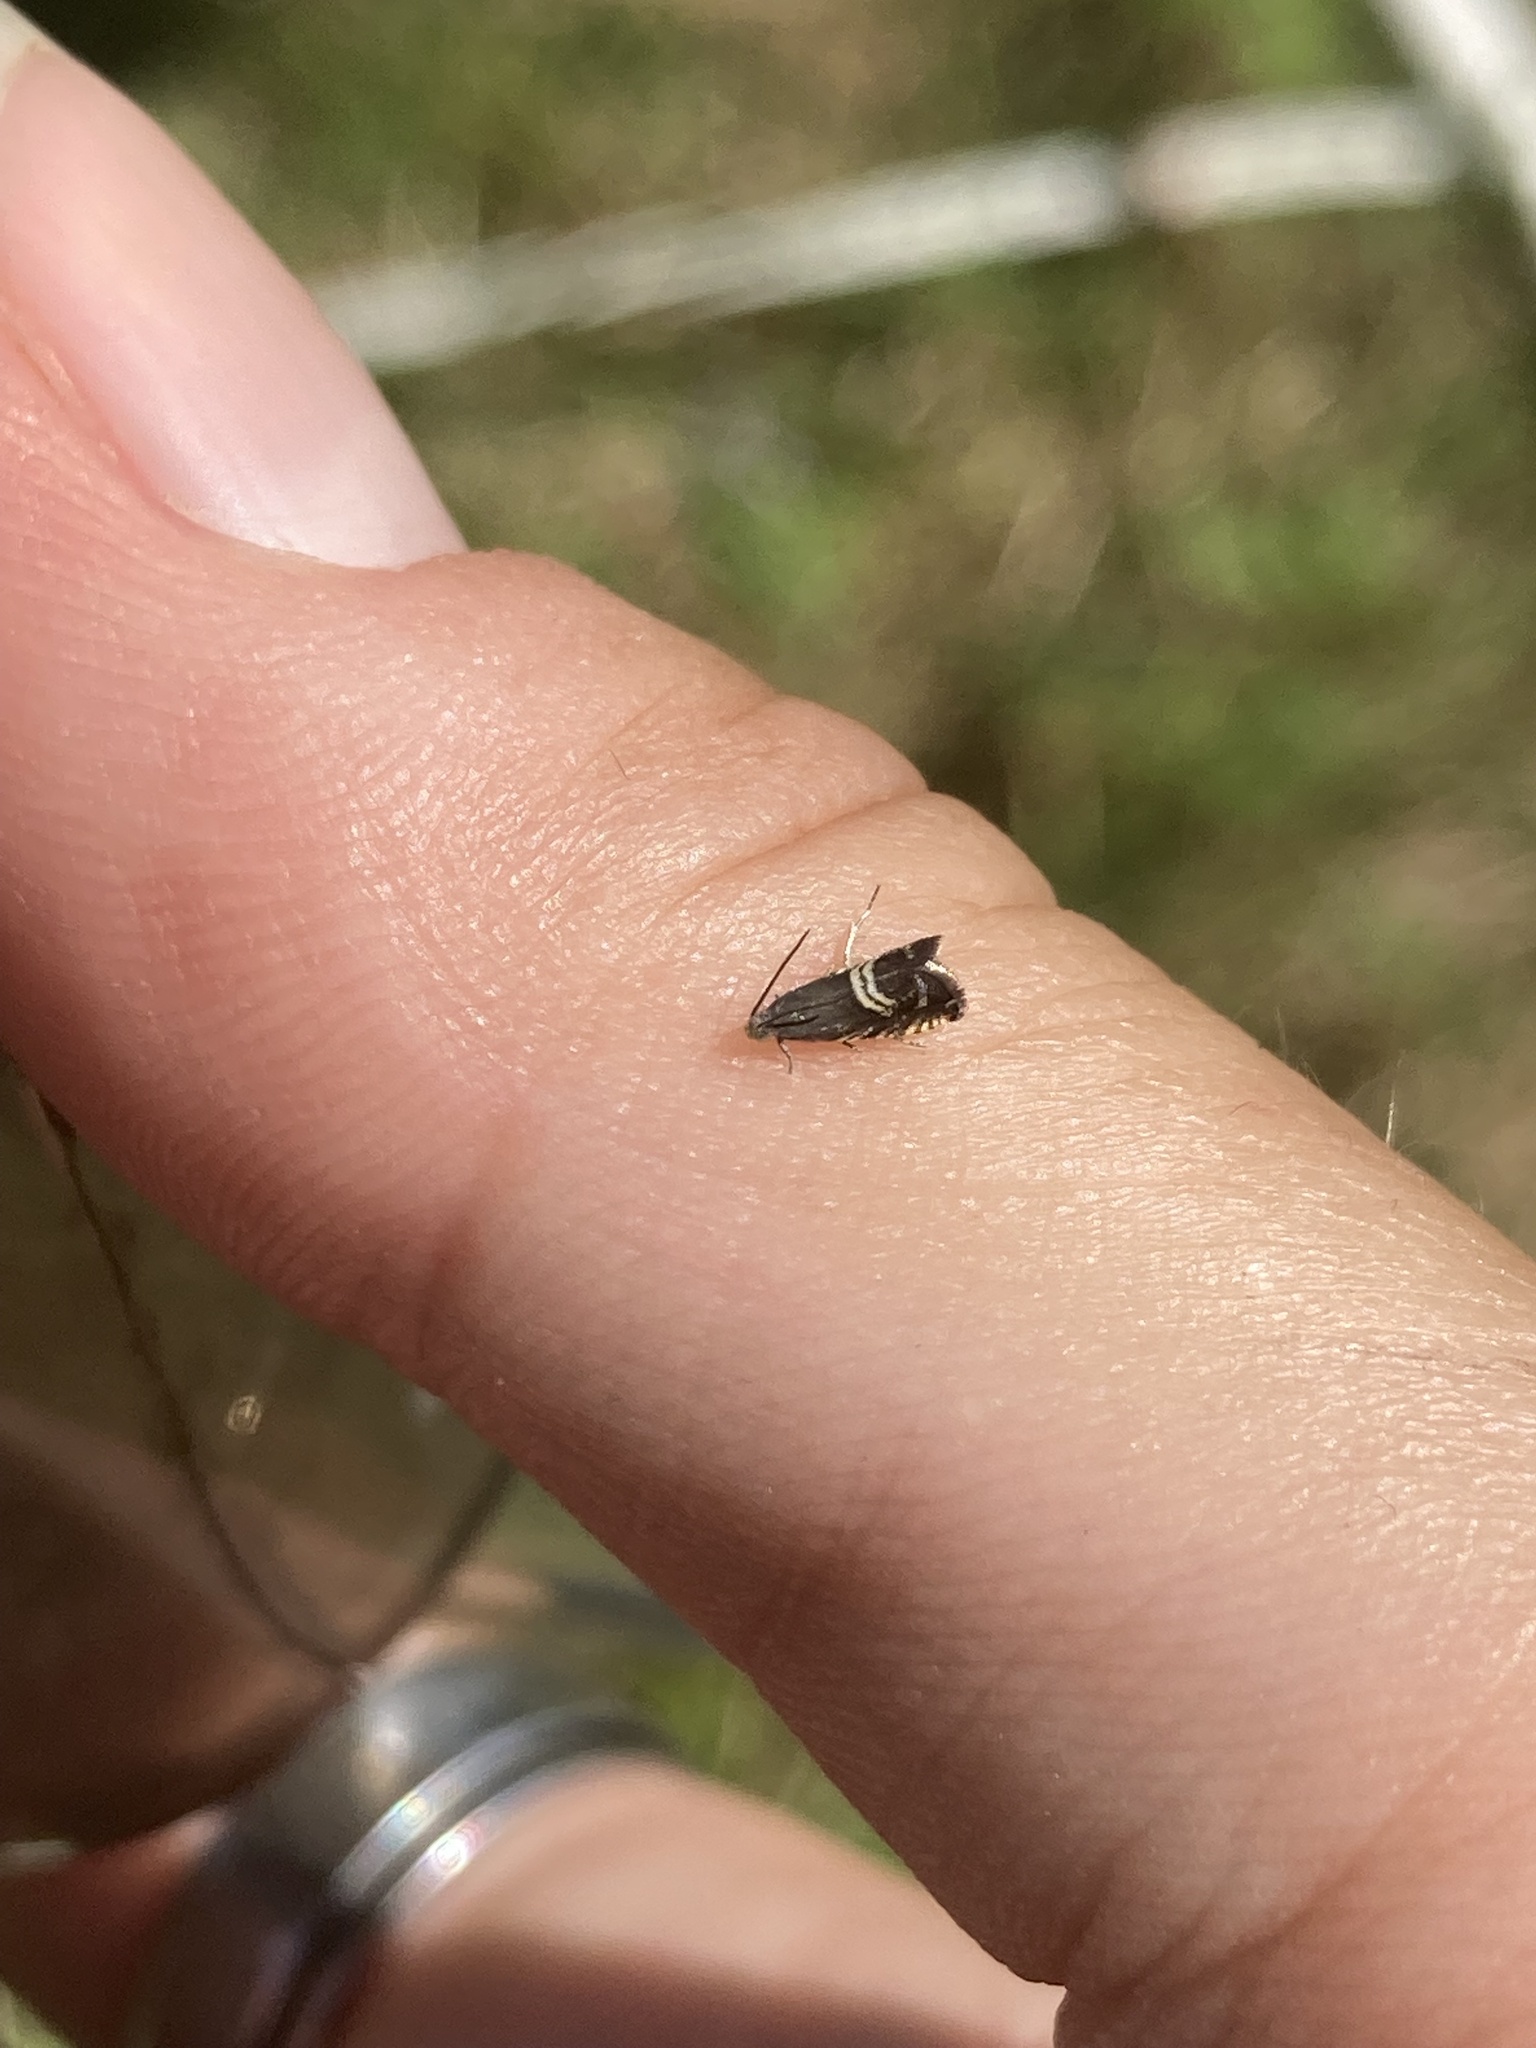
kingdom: Animalia
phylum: Arthropoda
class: Insecta
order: Lepidoptera
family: Tortricidae
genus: Grapholita
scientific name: Grapholita interstinctana
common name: Clover head caterpillar moth
